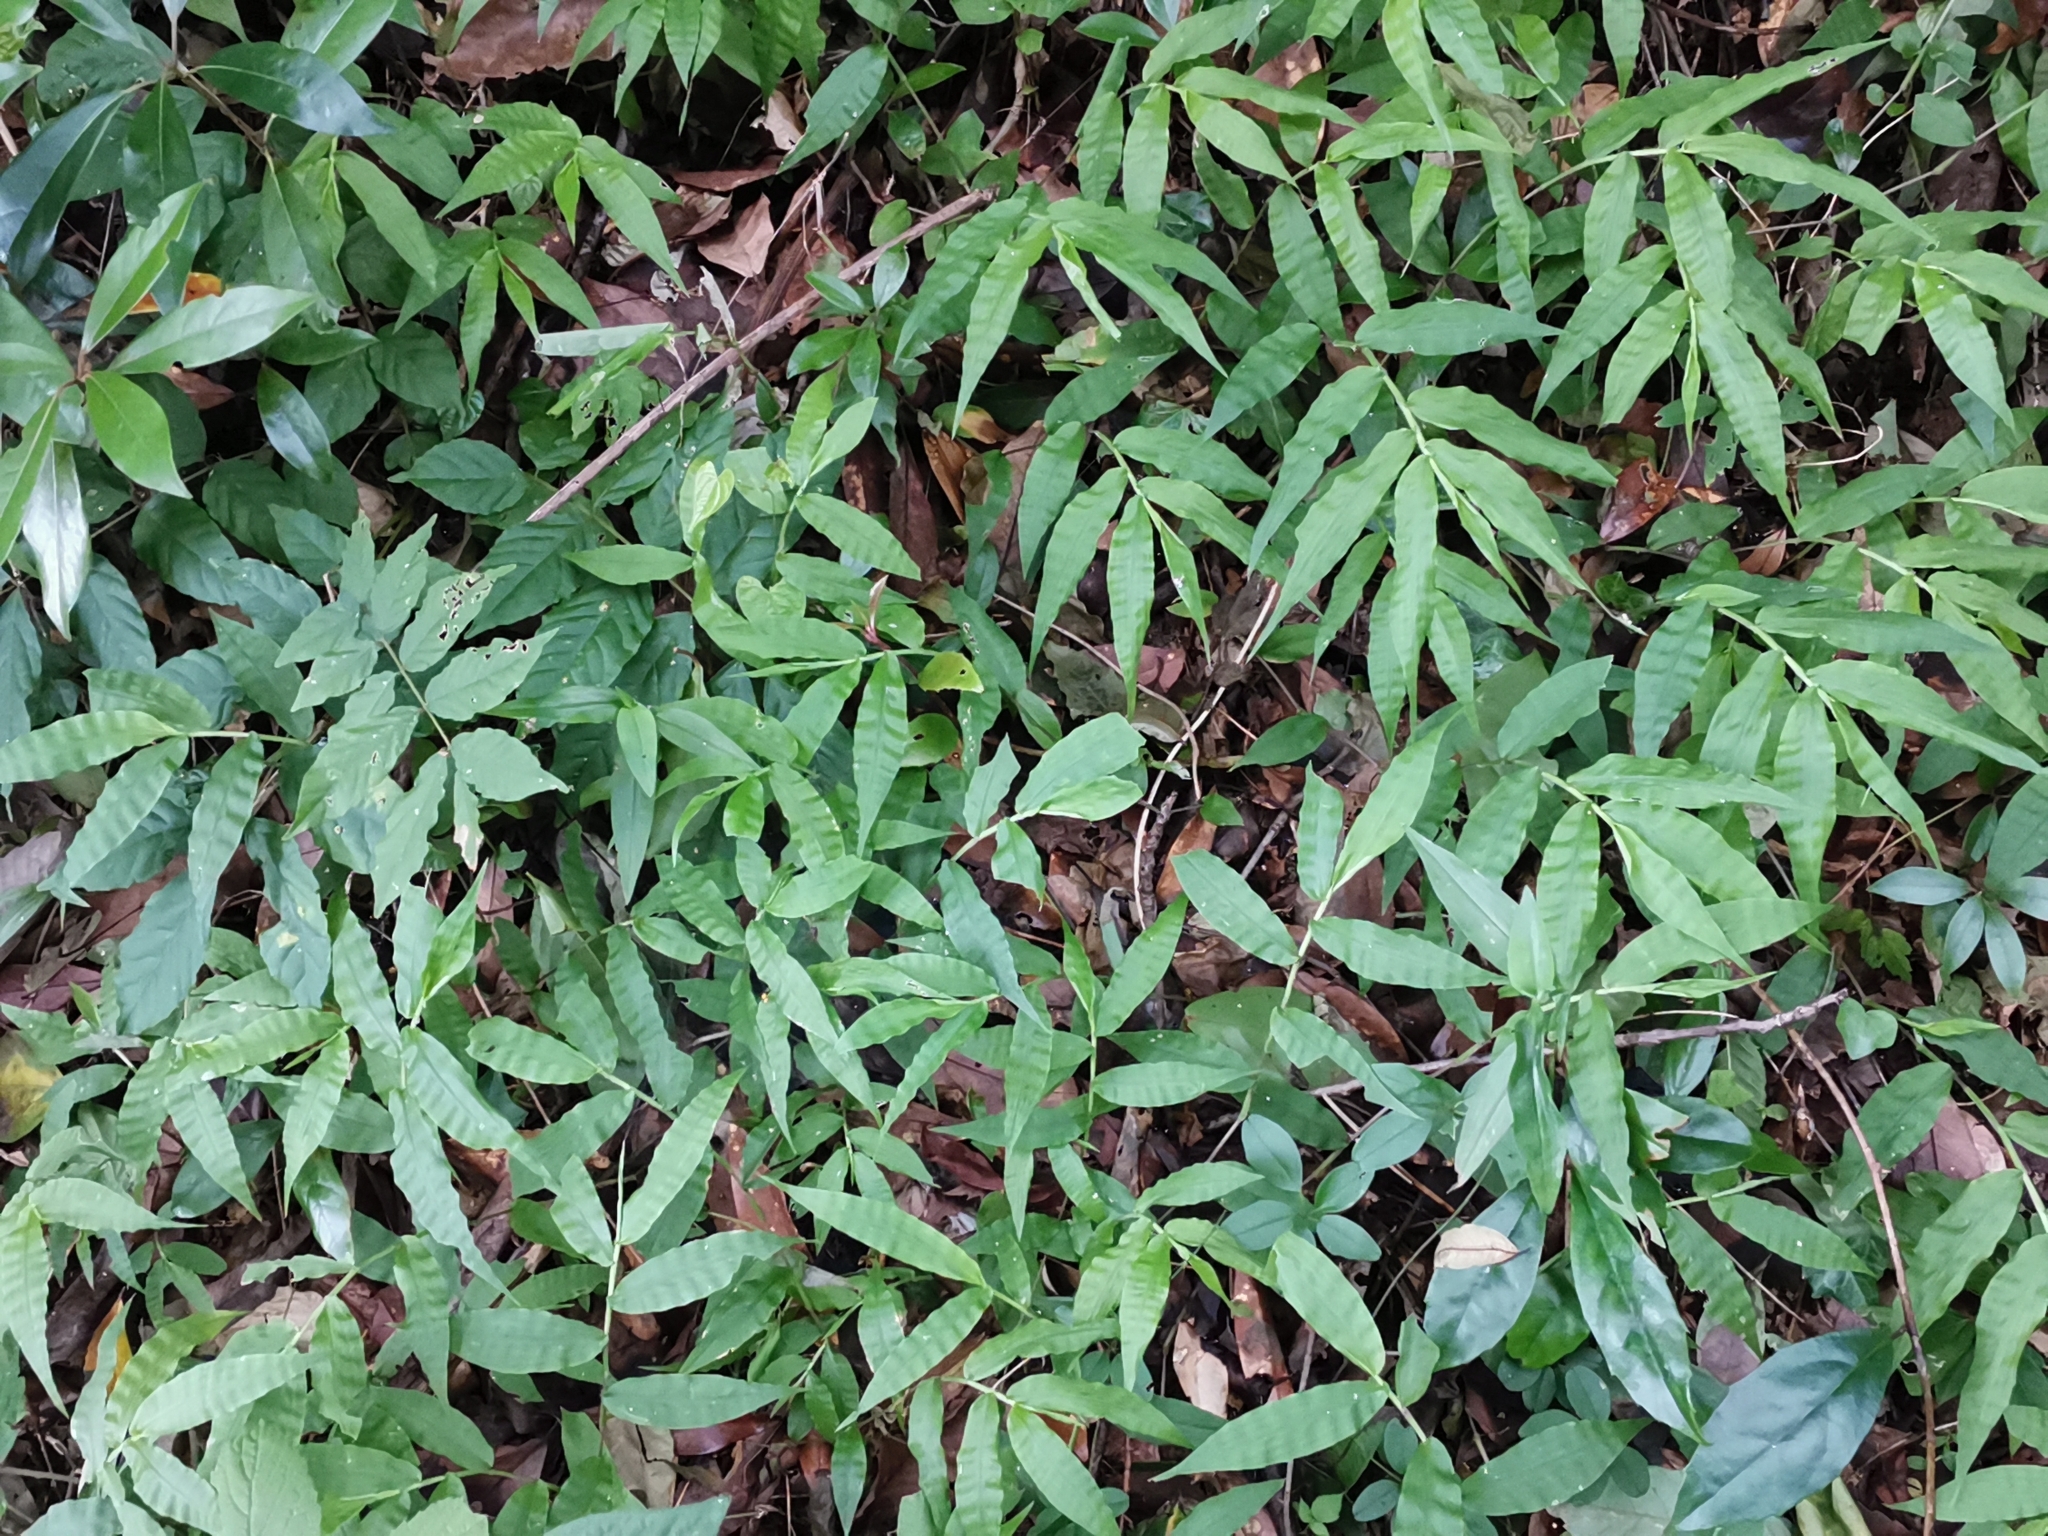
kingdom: Plantae
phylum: Tracheophyta
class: Liliopsida
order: Poales
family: Poaceae
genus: Oplismenus
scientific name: Oplismenus undulatifolius
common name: Wavyleaf basketgrass
